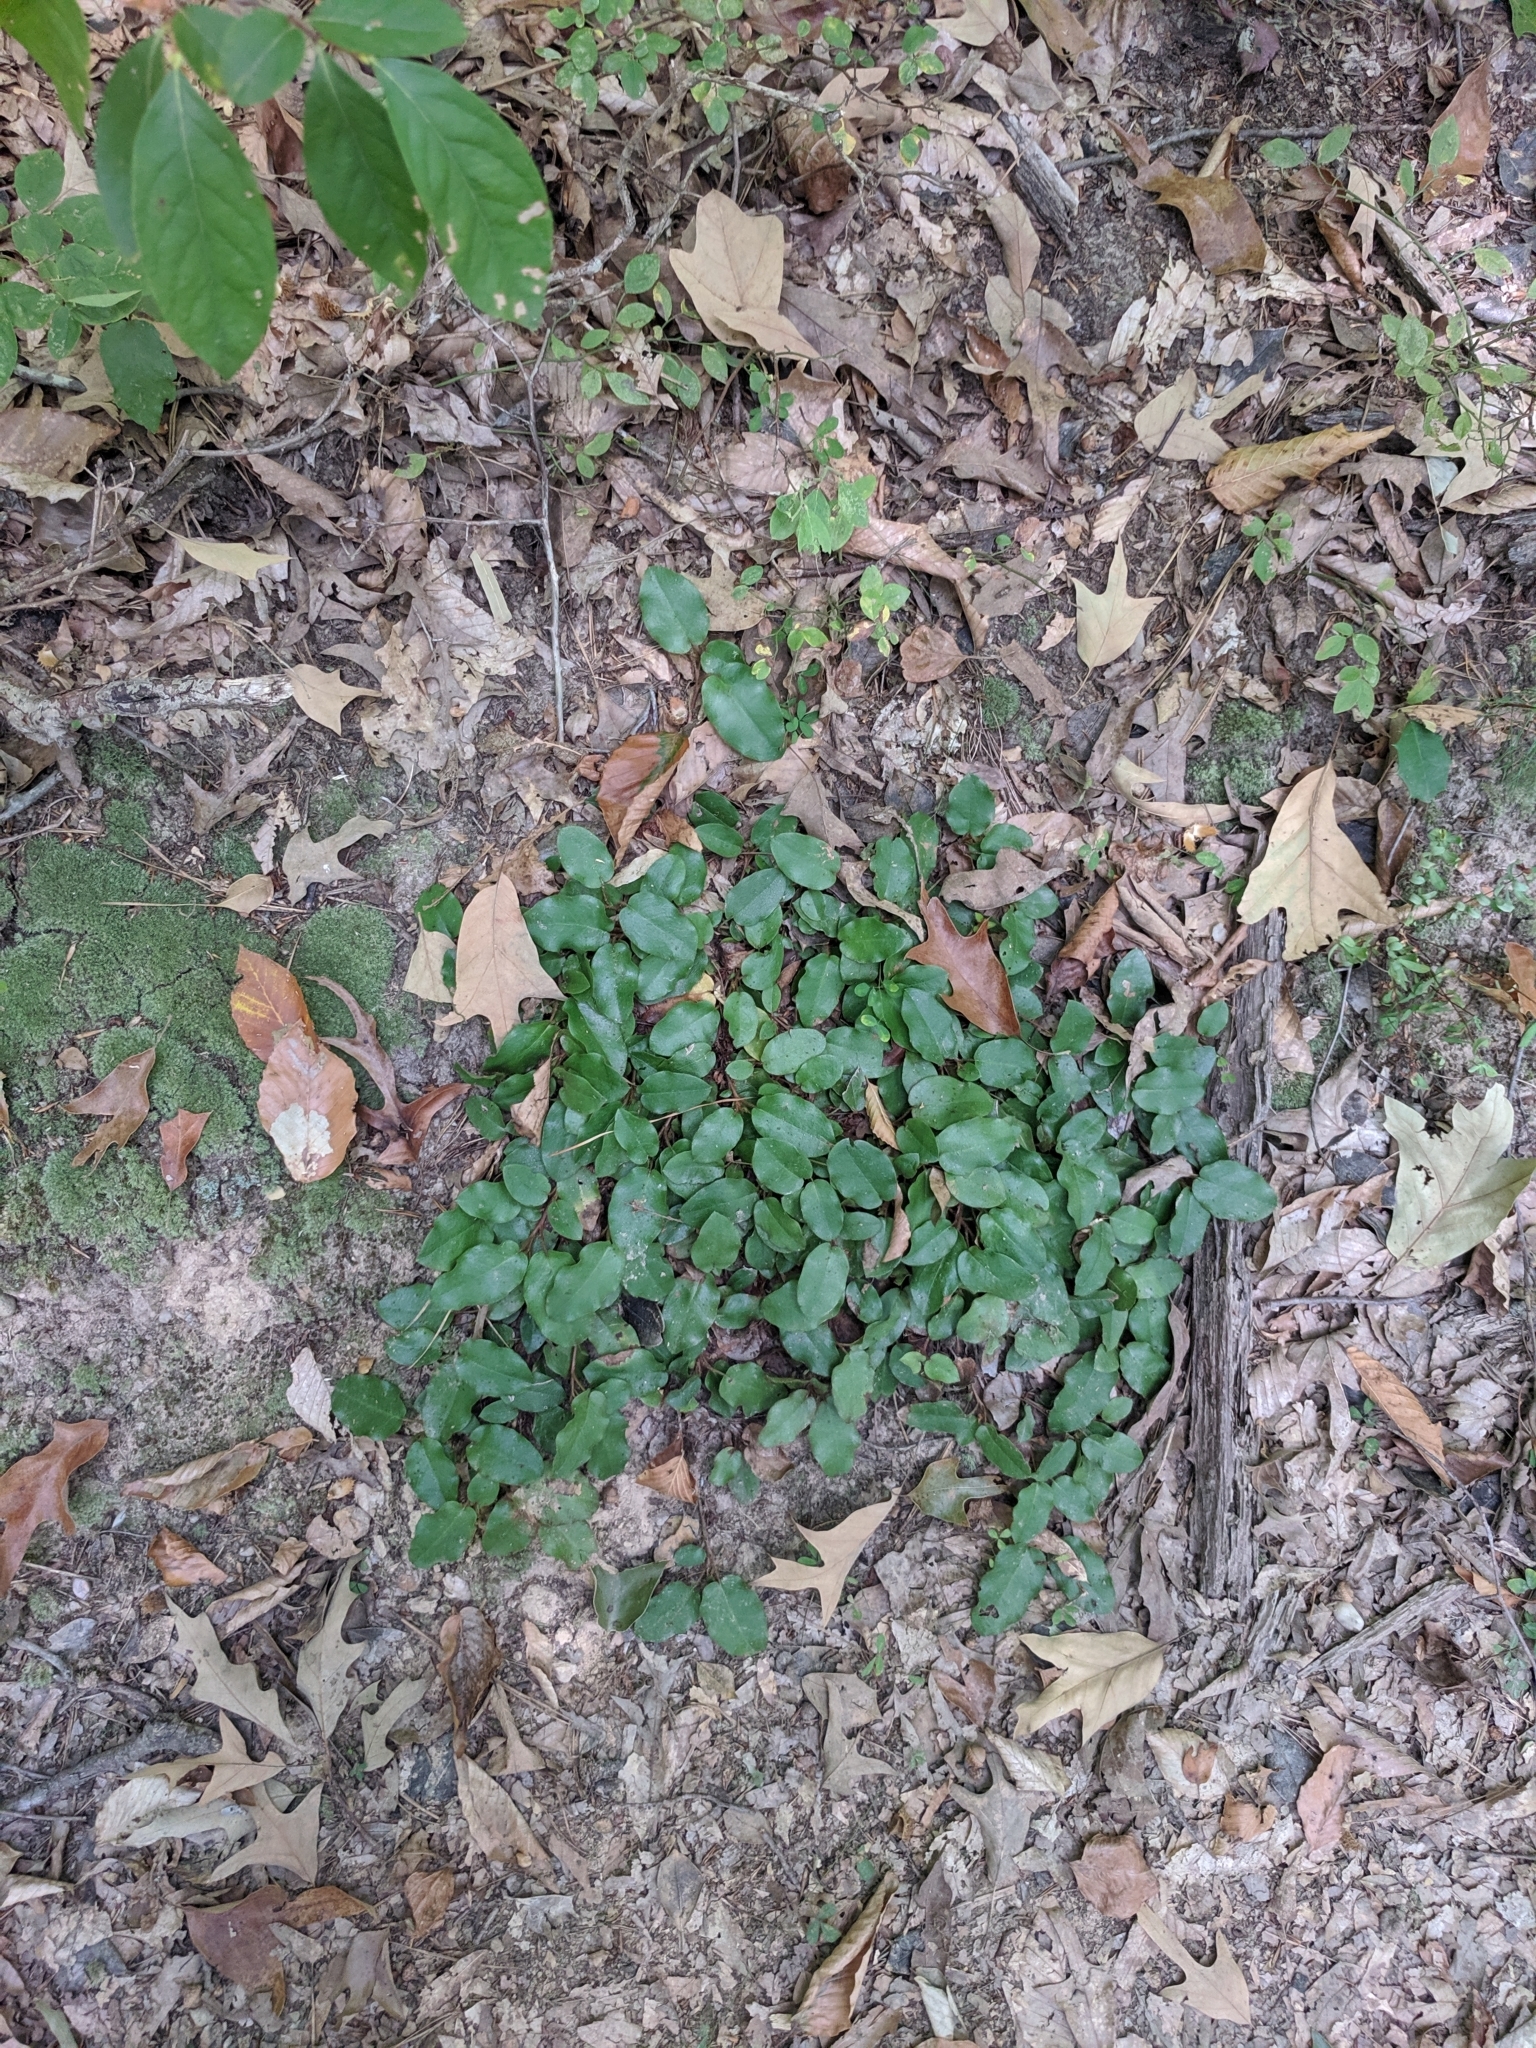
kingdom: Plantae
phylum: Tracheophyta
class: Magnoliopsida
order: Ericales
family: Ericaceae
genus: Epigaea
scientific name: Epigaea repens
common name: Gravelroot
